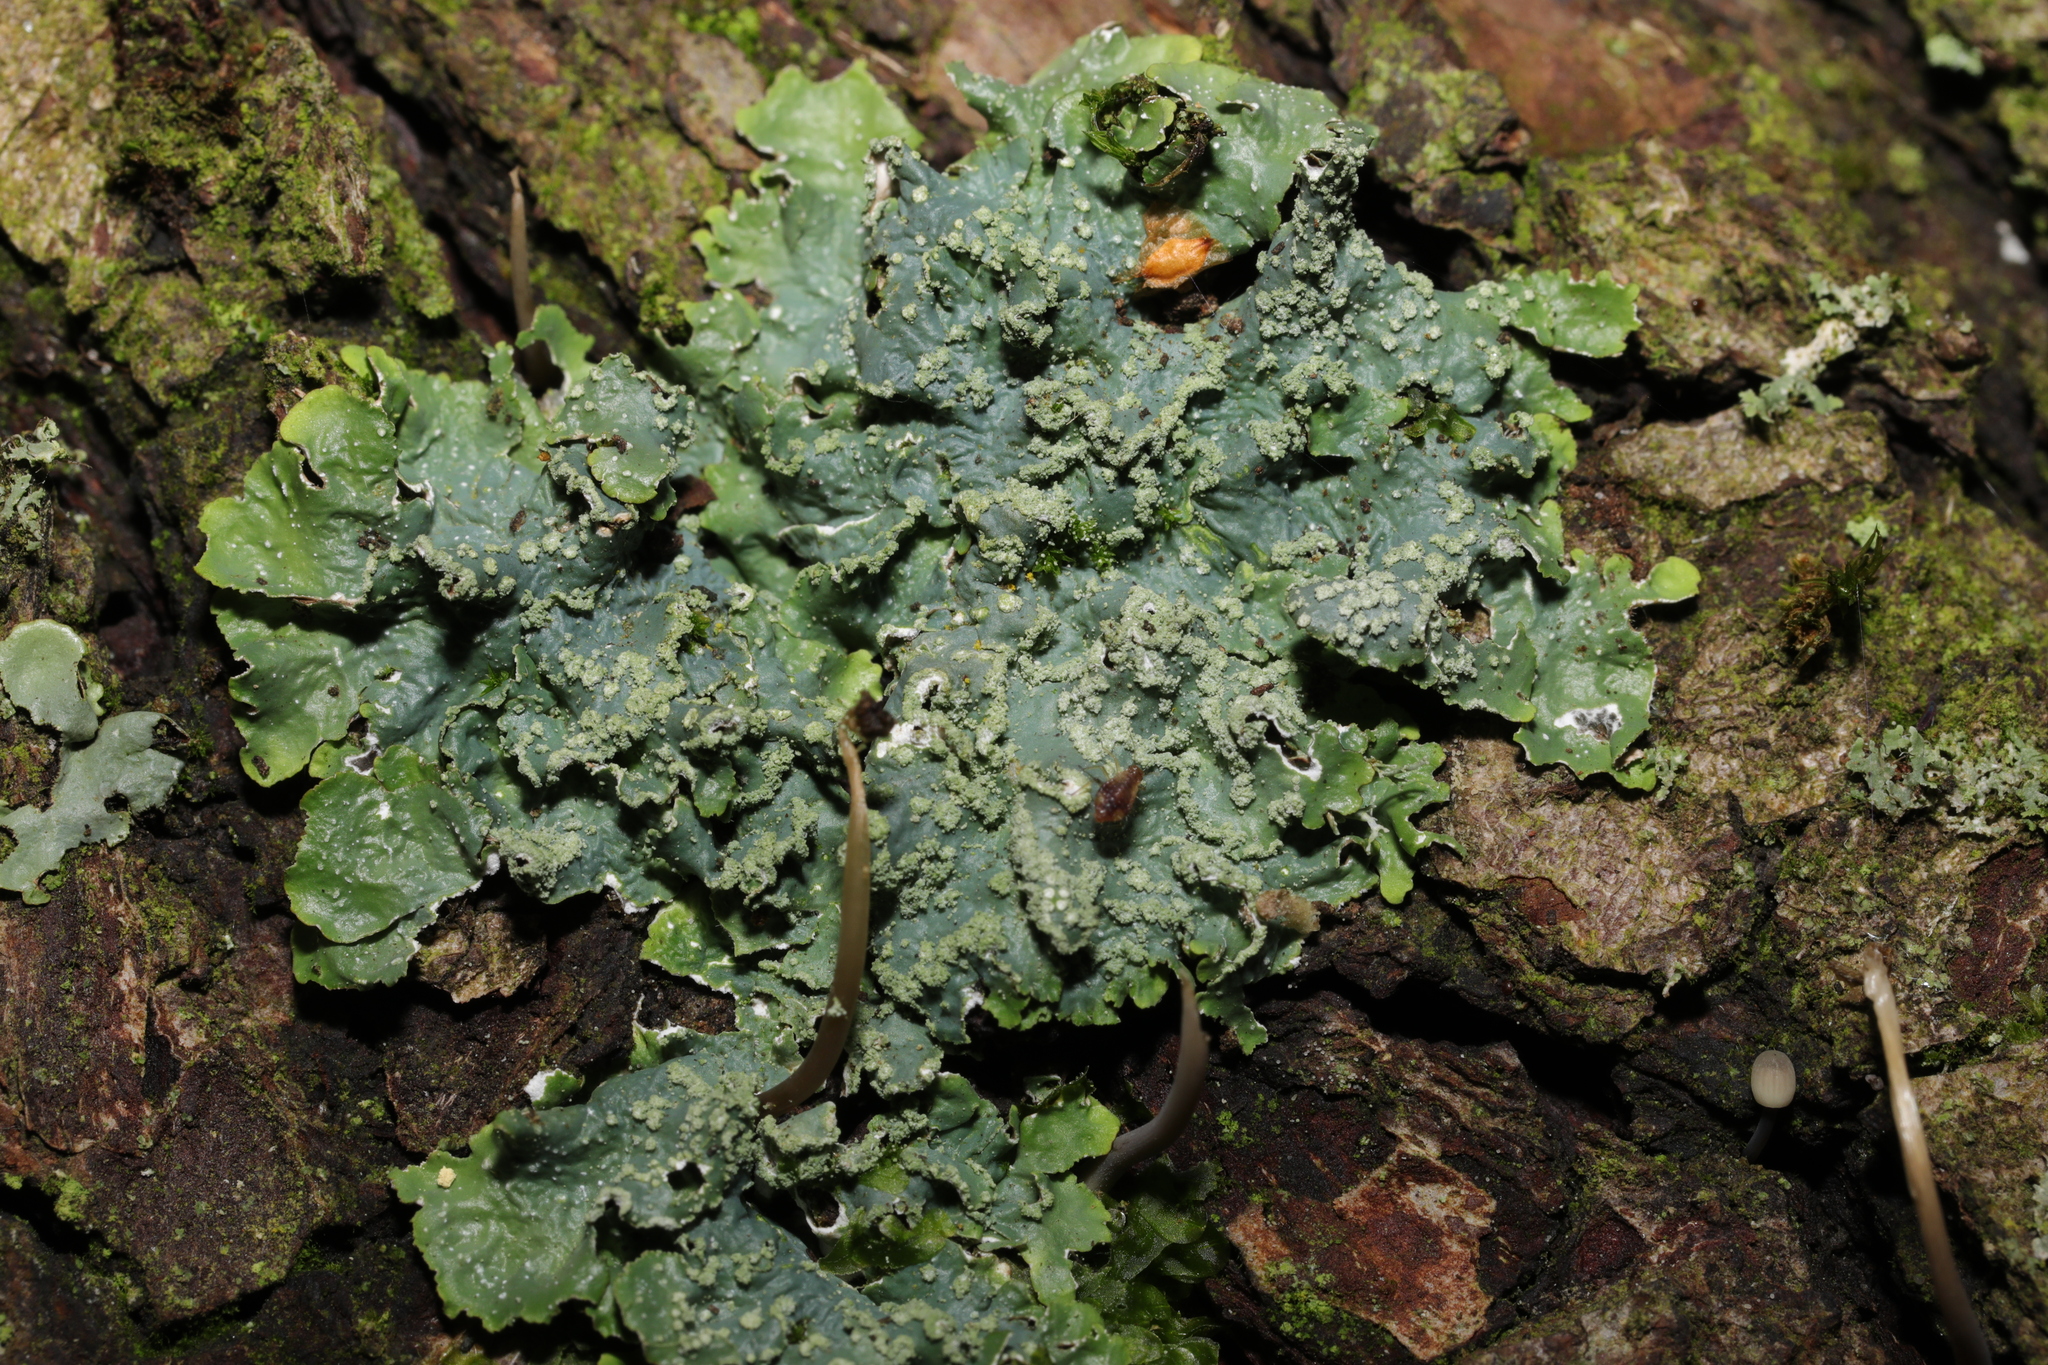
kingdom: Fungi
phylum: Ascomycota
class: Lecanoromycetes
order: Lecanorales
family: Parmeliaceae
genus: Punctelia
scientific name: Punctelia subrudecta
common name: Powdered speckled shield lichen
